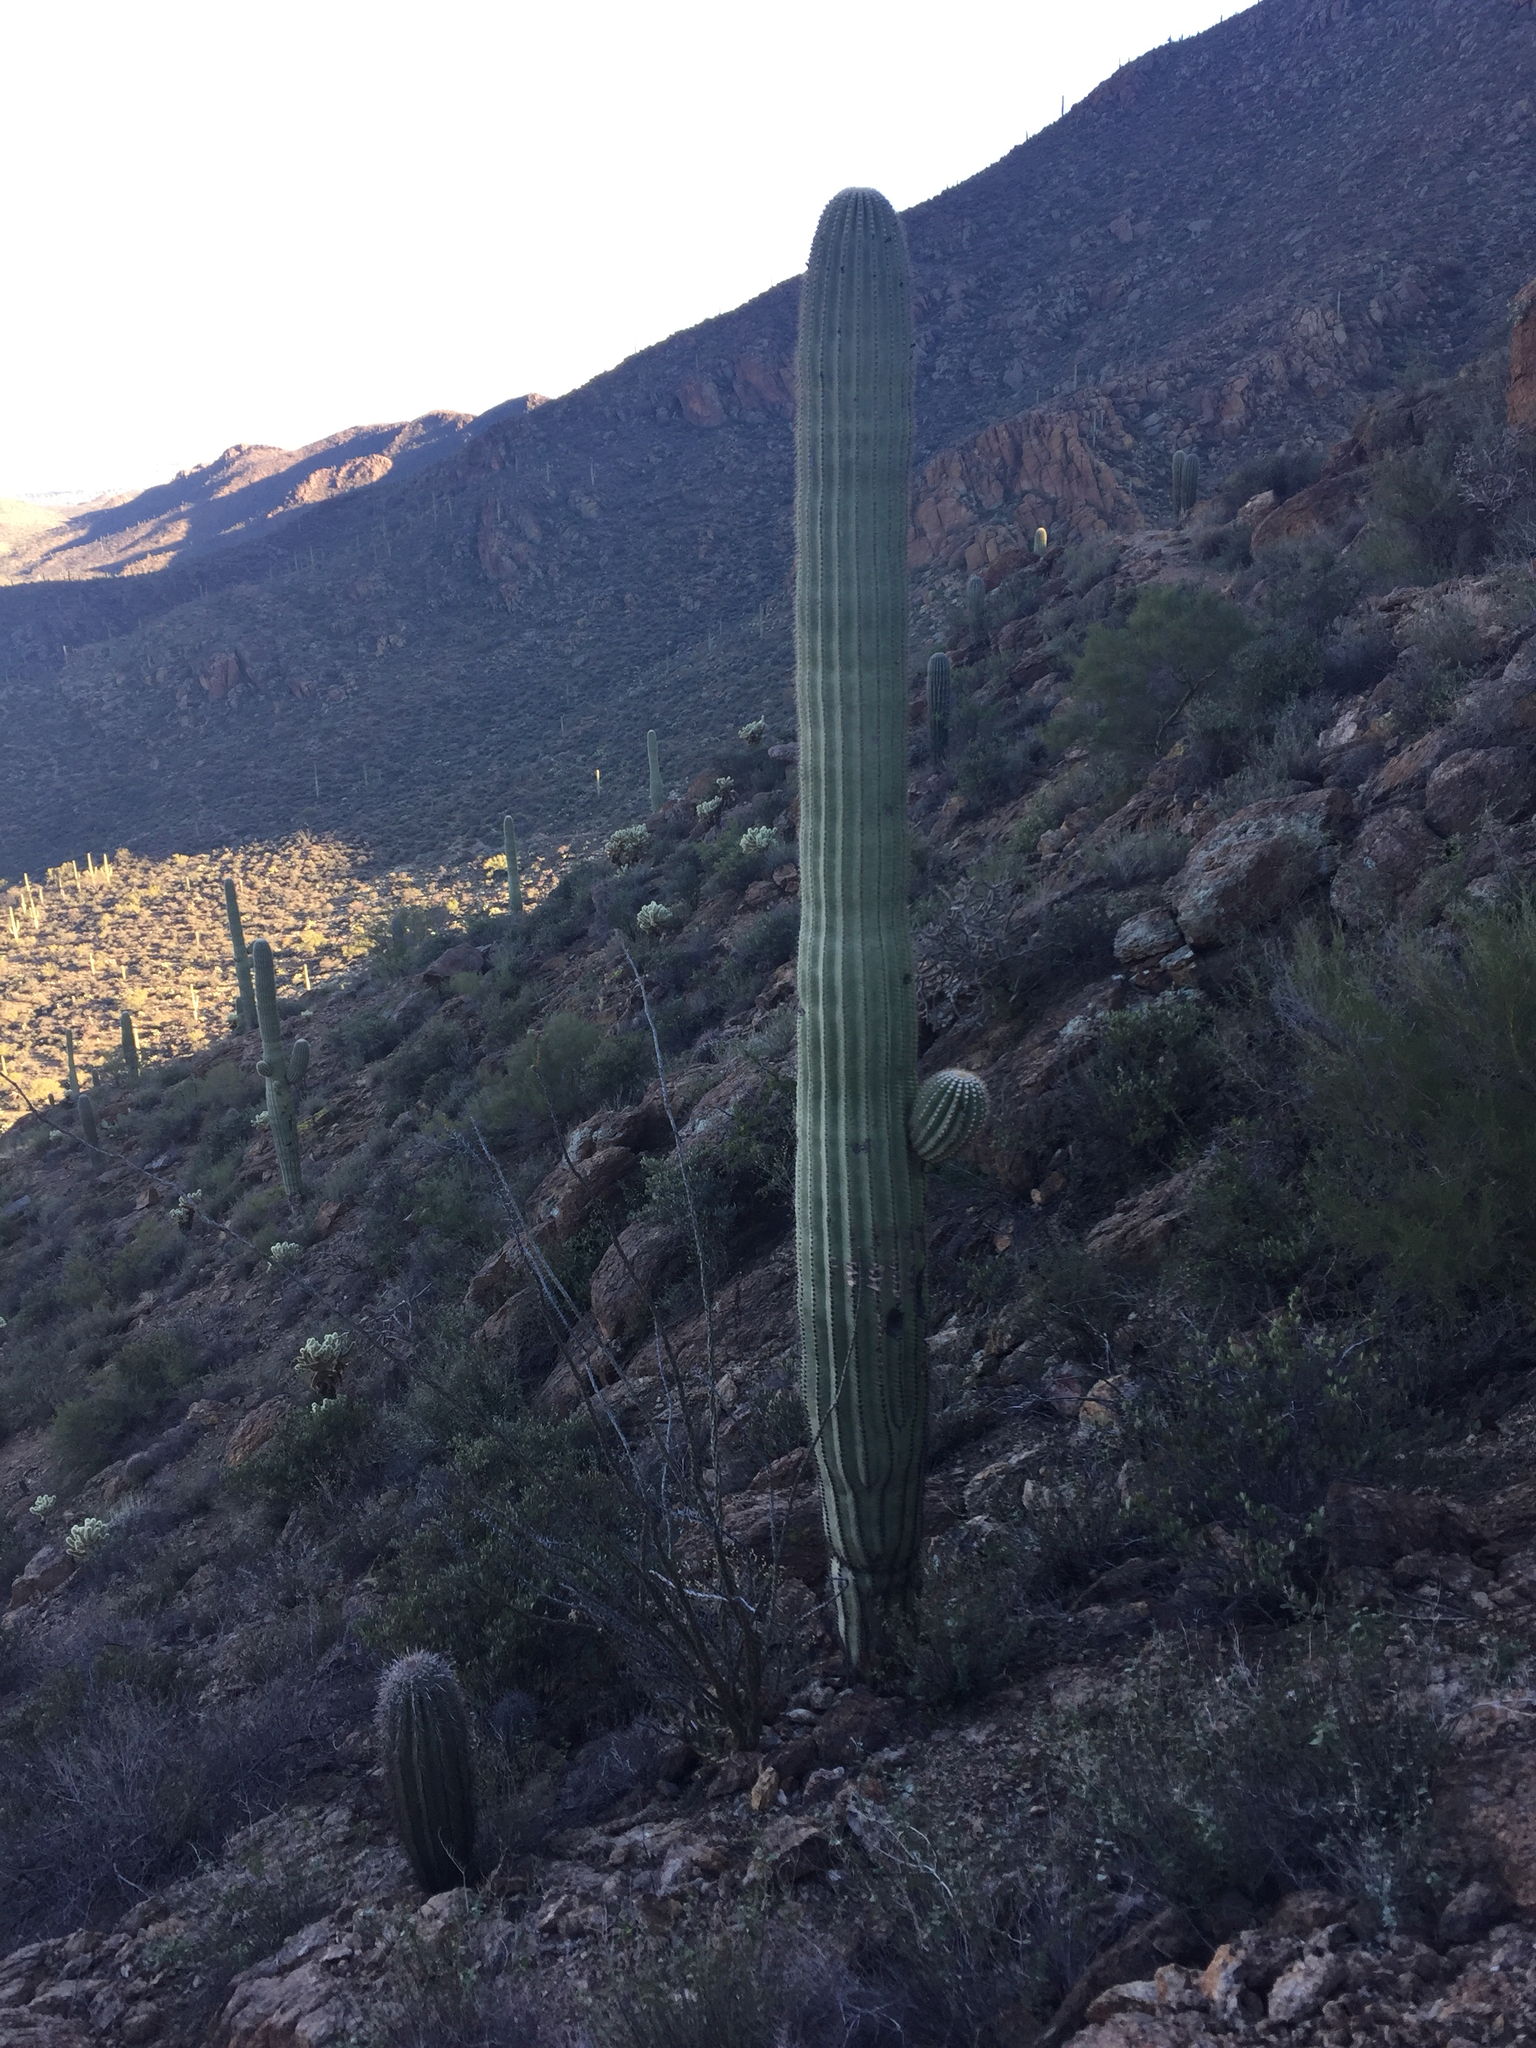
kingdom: Plantae
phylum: Tracheophyta
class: Magnoliopsida
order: Caryophyllales
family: Cactaceae
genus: Carnegiea
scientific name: Carnegiea gigantea
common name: Saguaro
